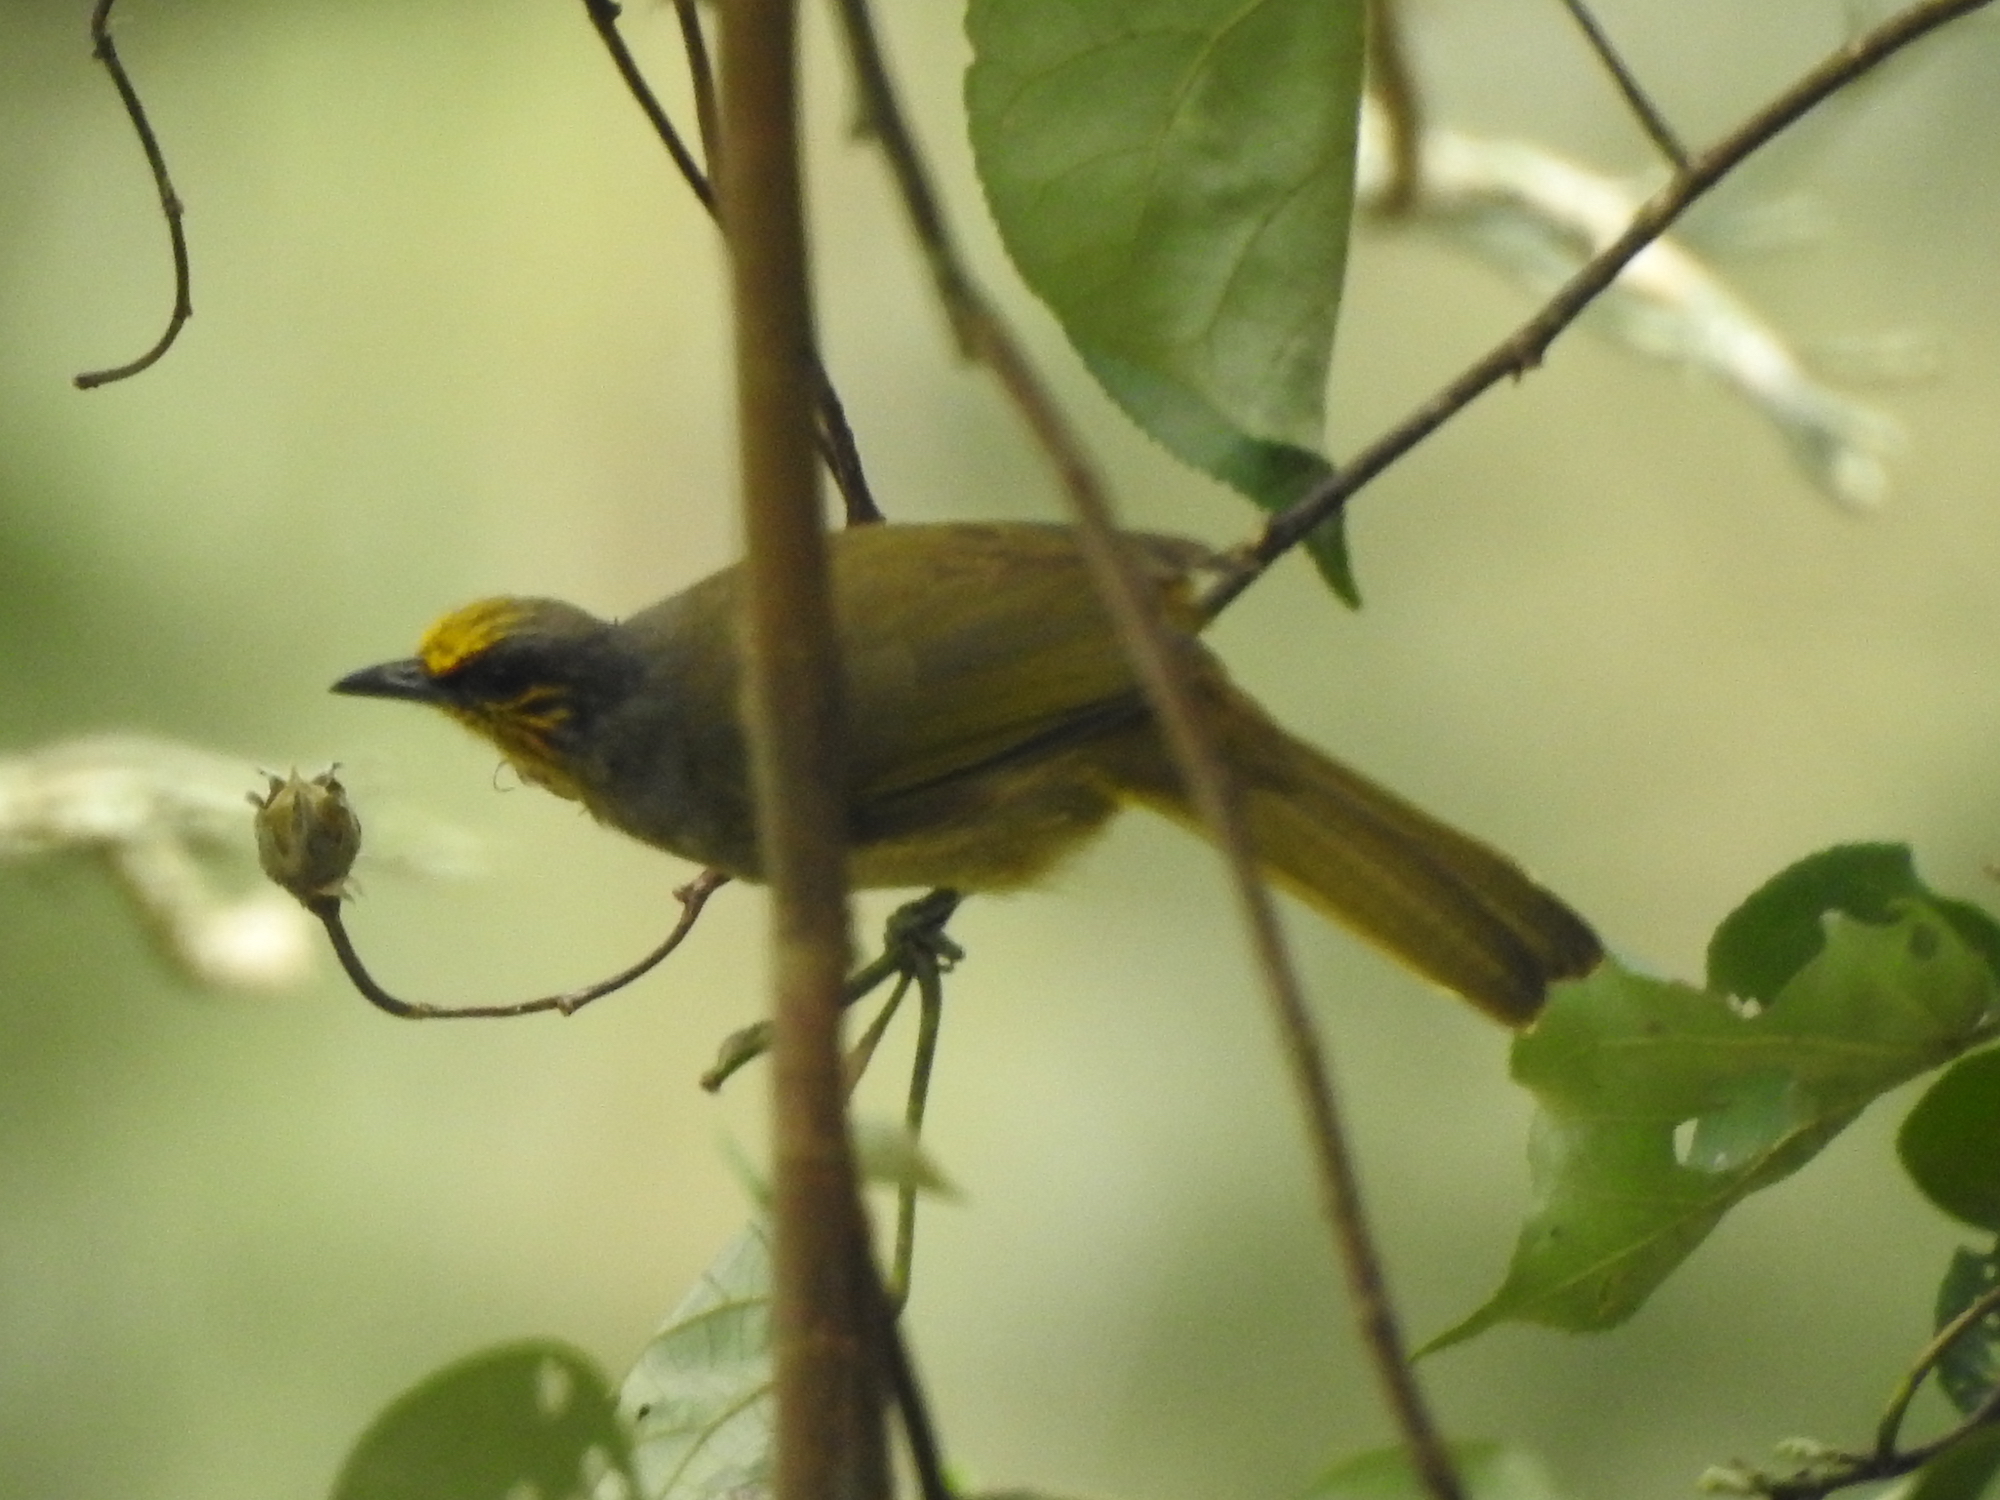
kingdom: Animalia
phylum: Chordata
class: Aves
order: Passeriformes
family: Pycnonotidae
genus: Pycnonotus
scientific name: Pycnonotus finlaysoni
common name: Stripe-throated bulbul
